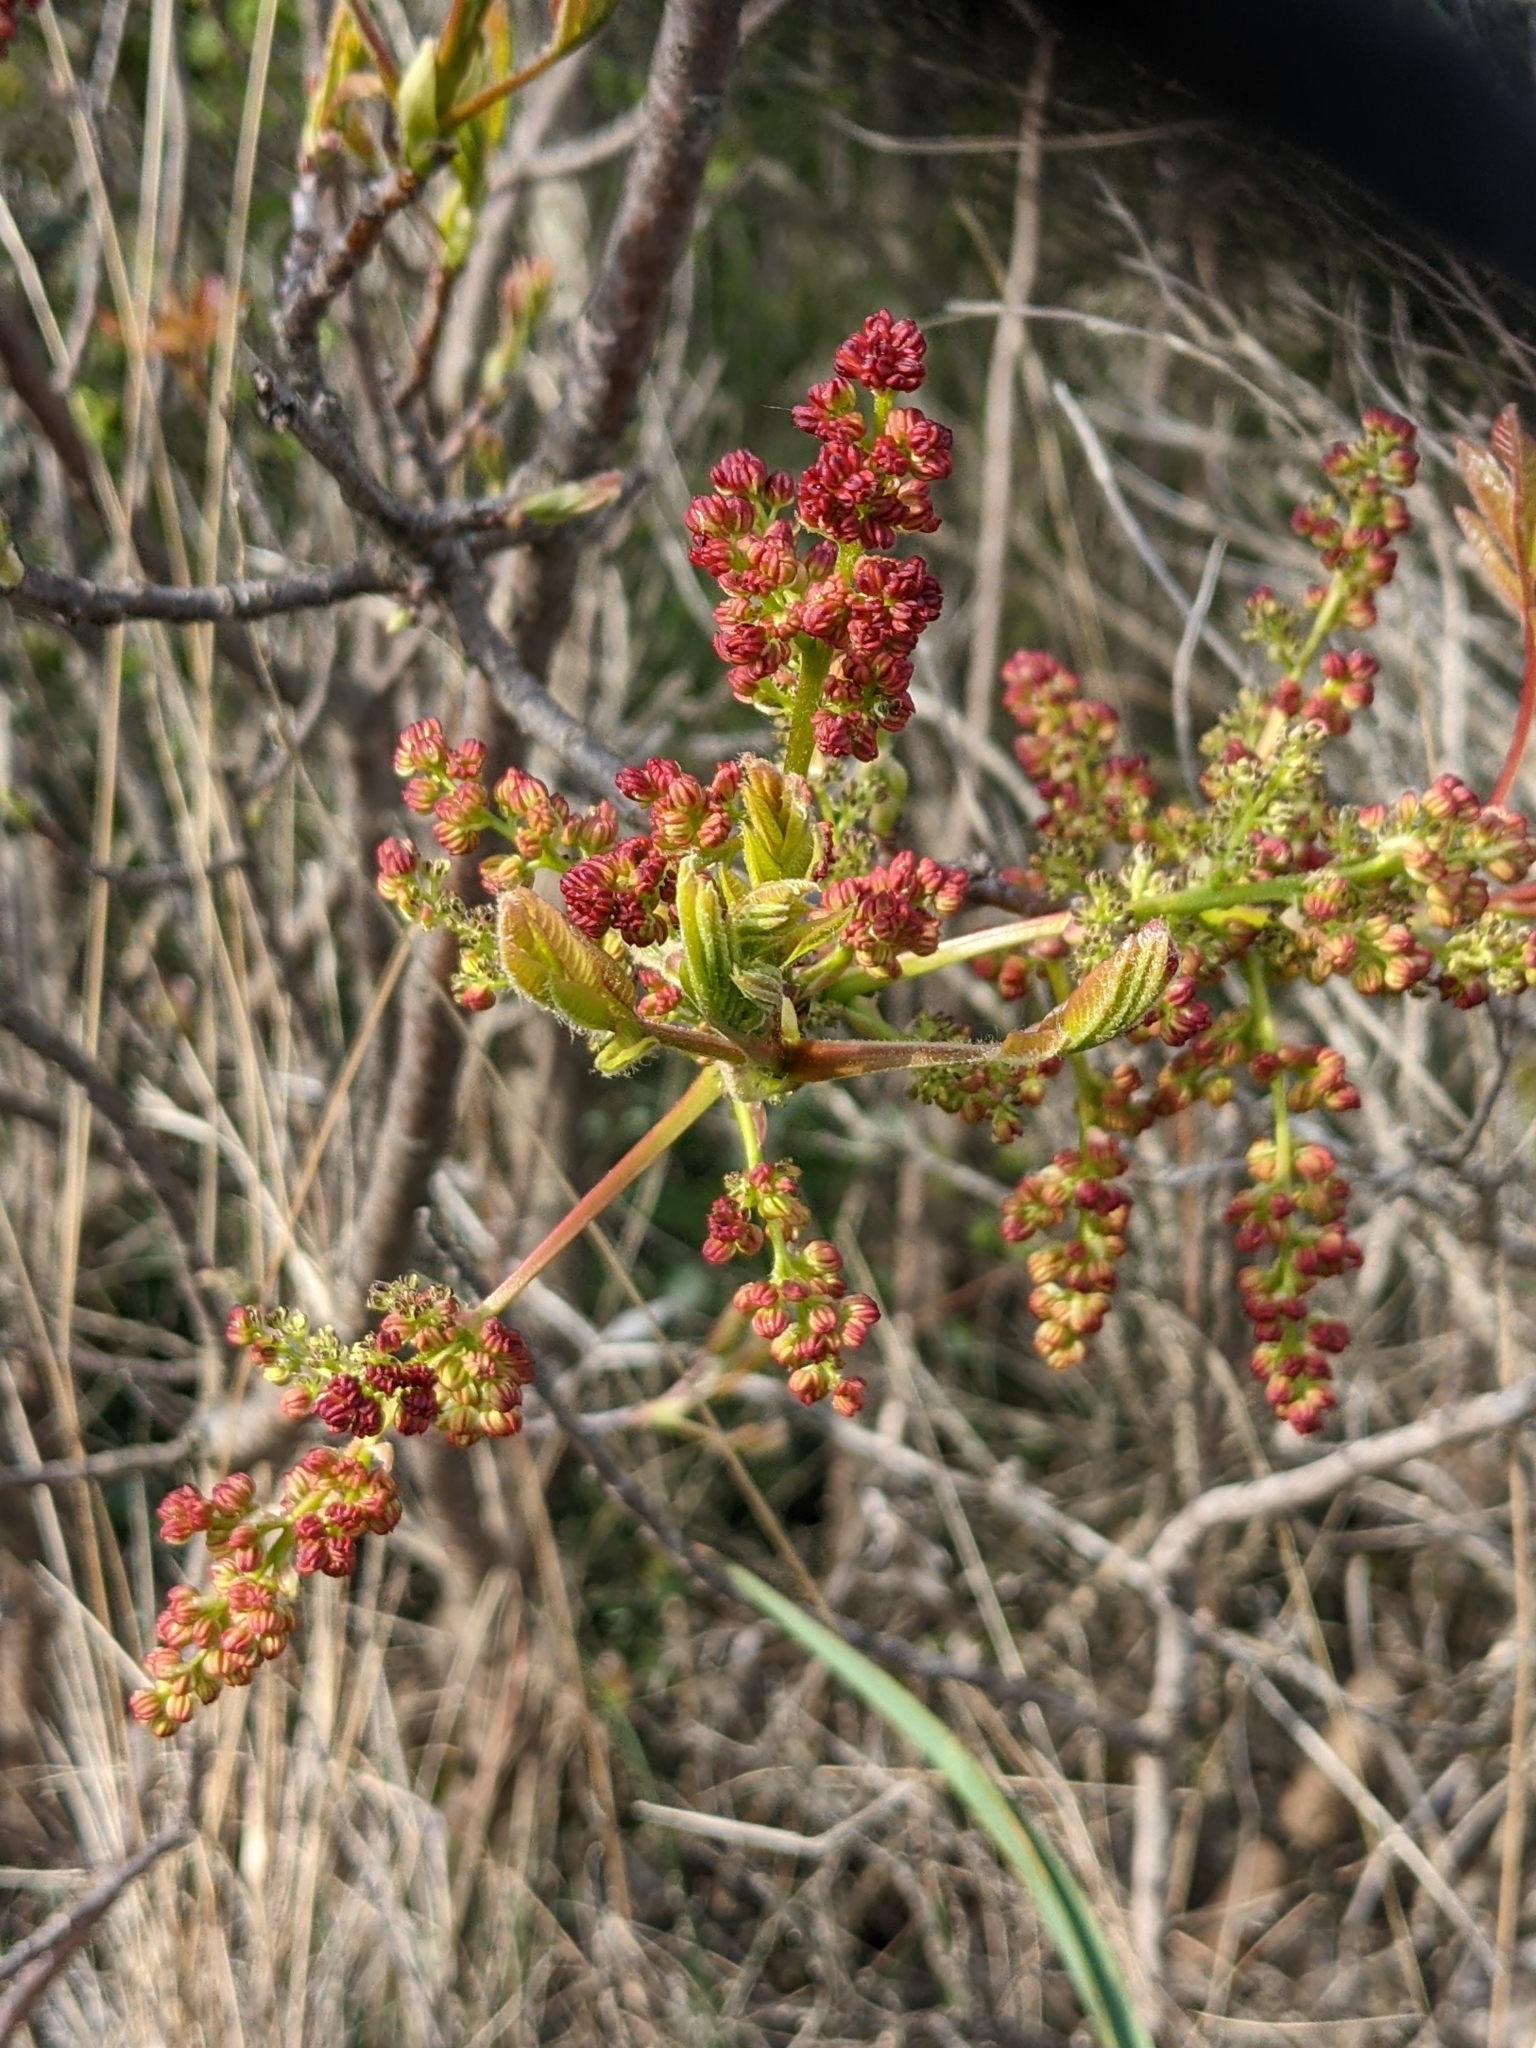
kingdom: Plantae
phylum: Tracheophyta
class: Magnoliopsida
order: Sapindales
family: Anacardiaceae
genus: Pistacia
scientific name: Pistacia terebinthus
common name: Terebinth
